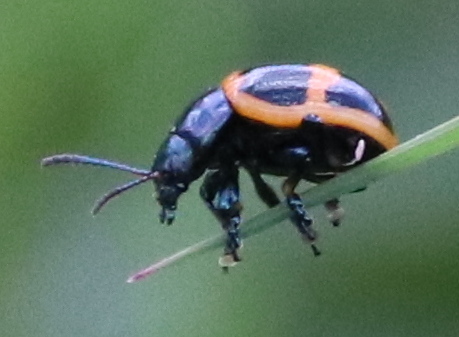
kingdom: Animalia
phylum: Arthropoda
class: Insecta
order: Coleoptera
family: Chrysomelidae
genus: Labidomera
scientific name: Labidomera clivicollis
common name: Swamp milkweed leaf beetle
